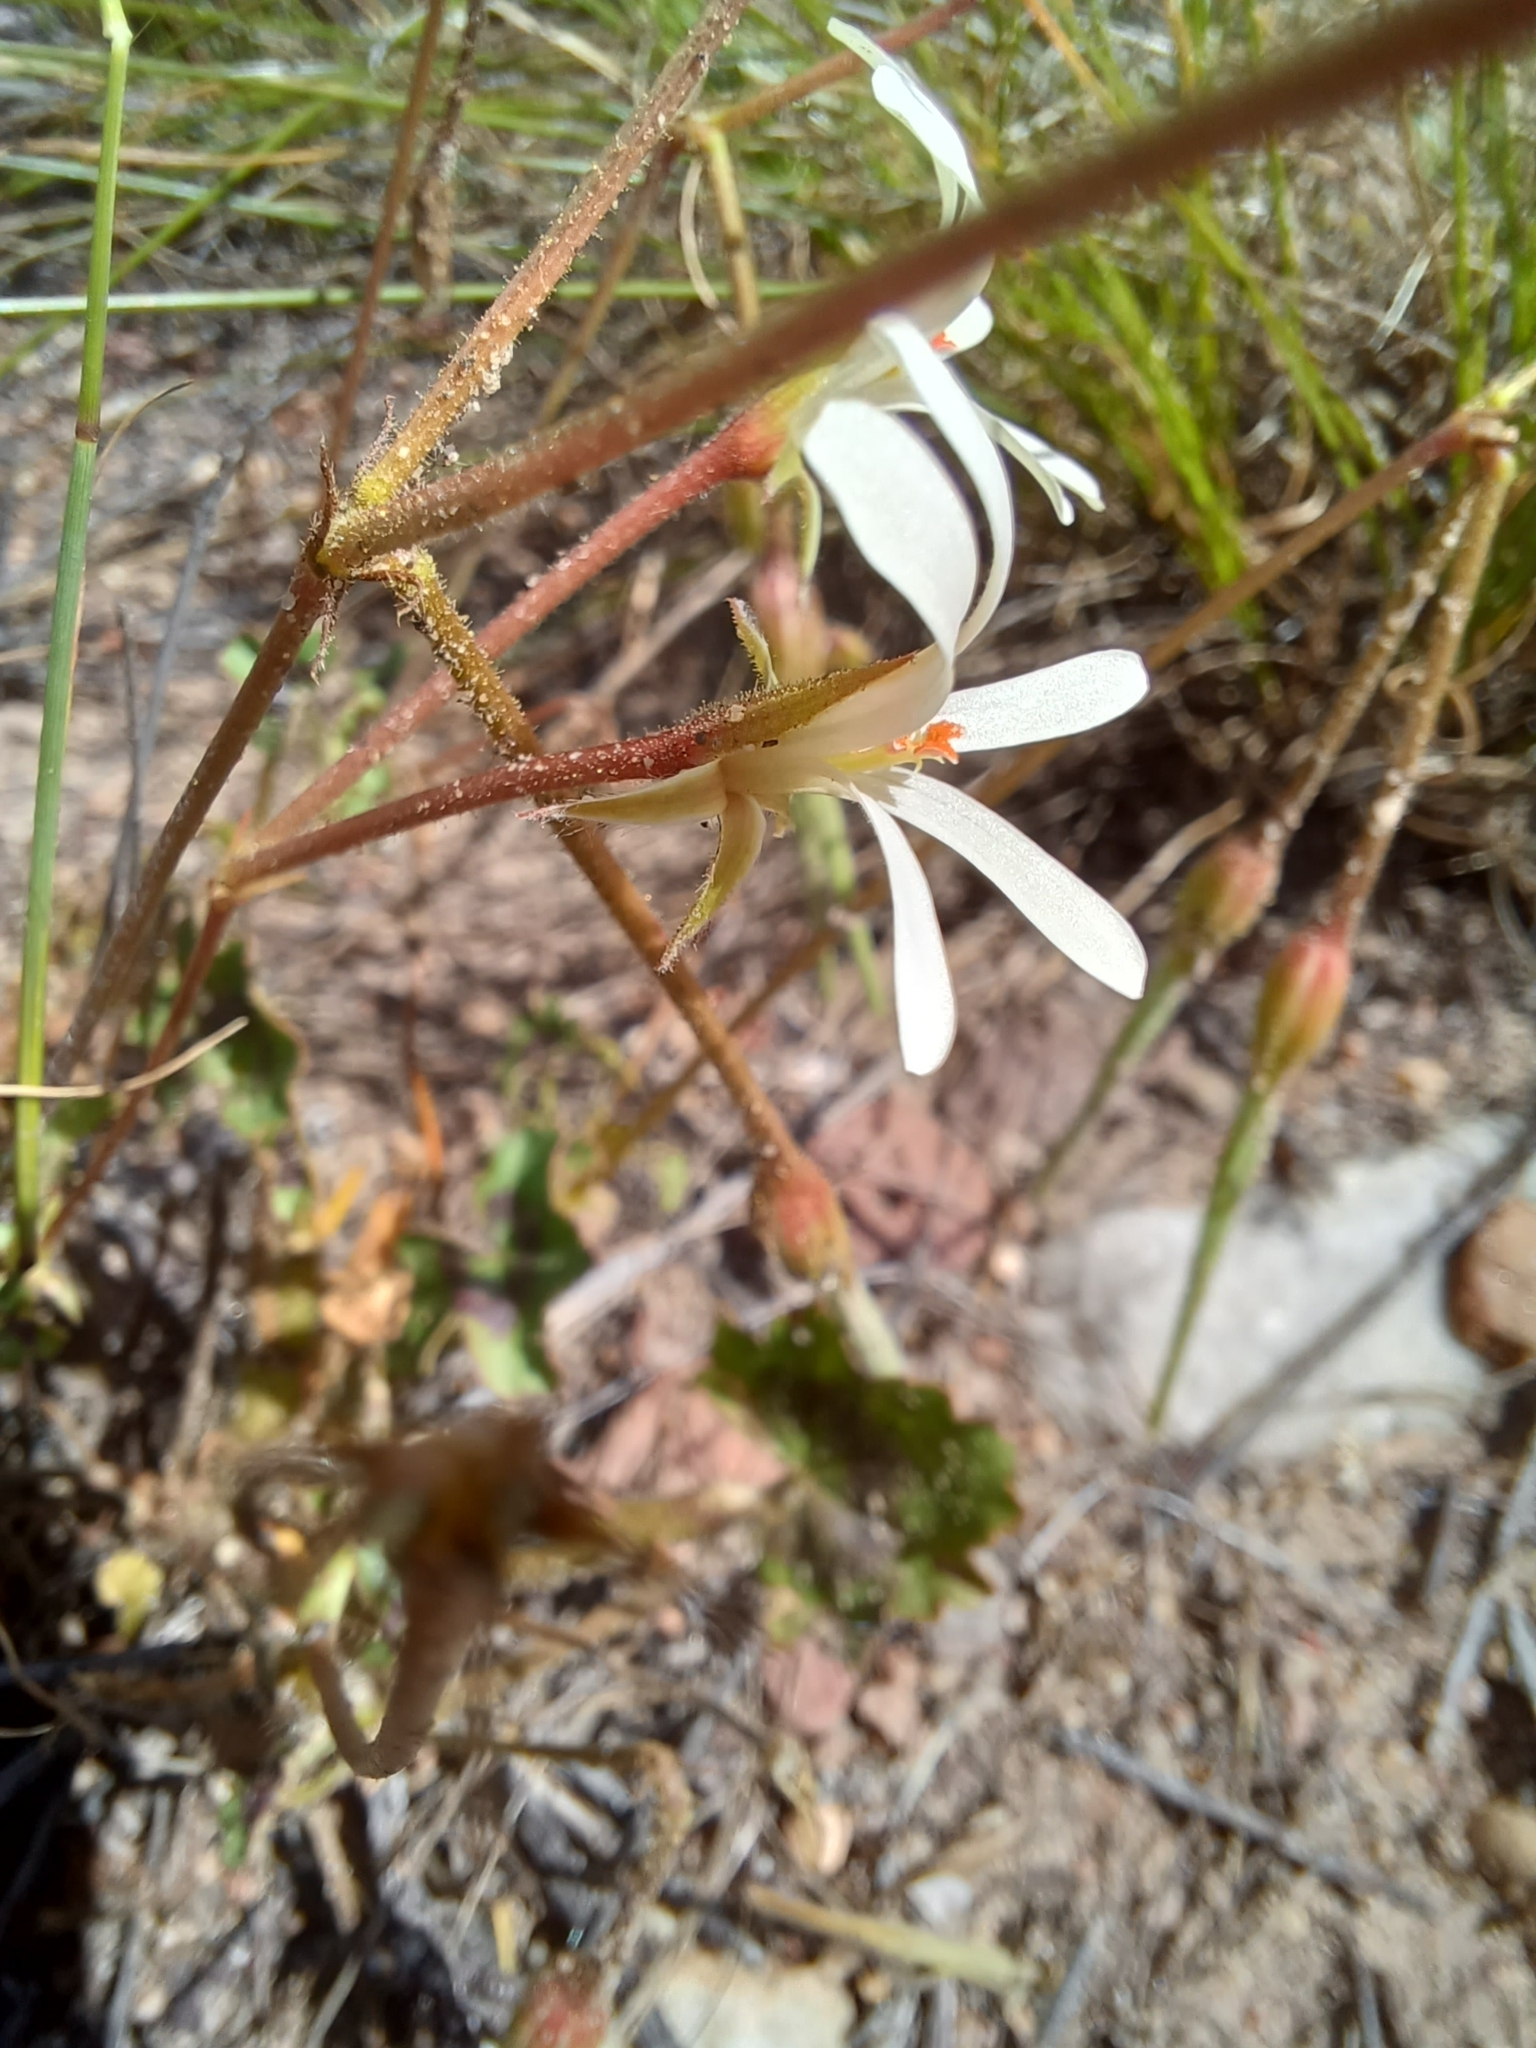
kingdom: Plantae
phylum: Tracheophyta
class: Magnoliopsida
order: Geraniales
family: Geraniaceae
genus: Pelargonium
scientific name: Pelargonium elongatum
